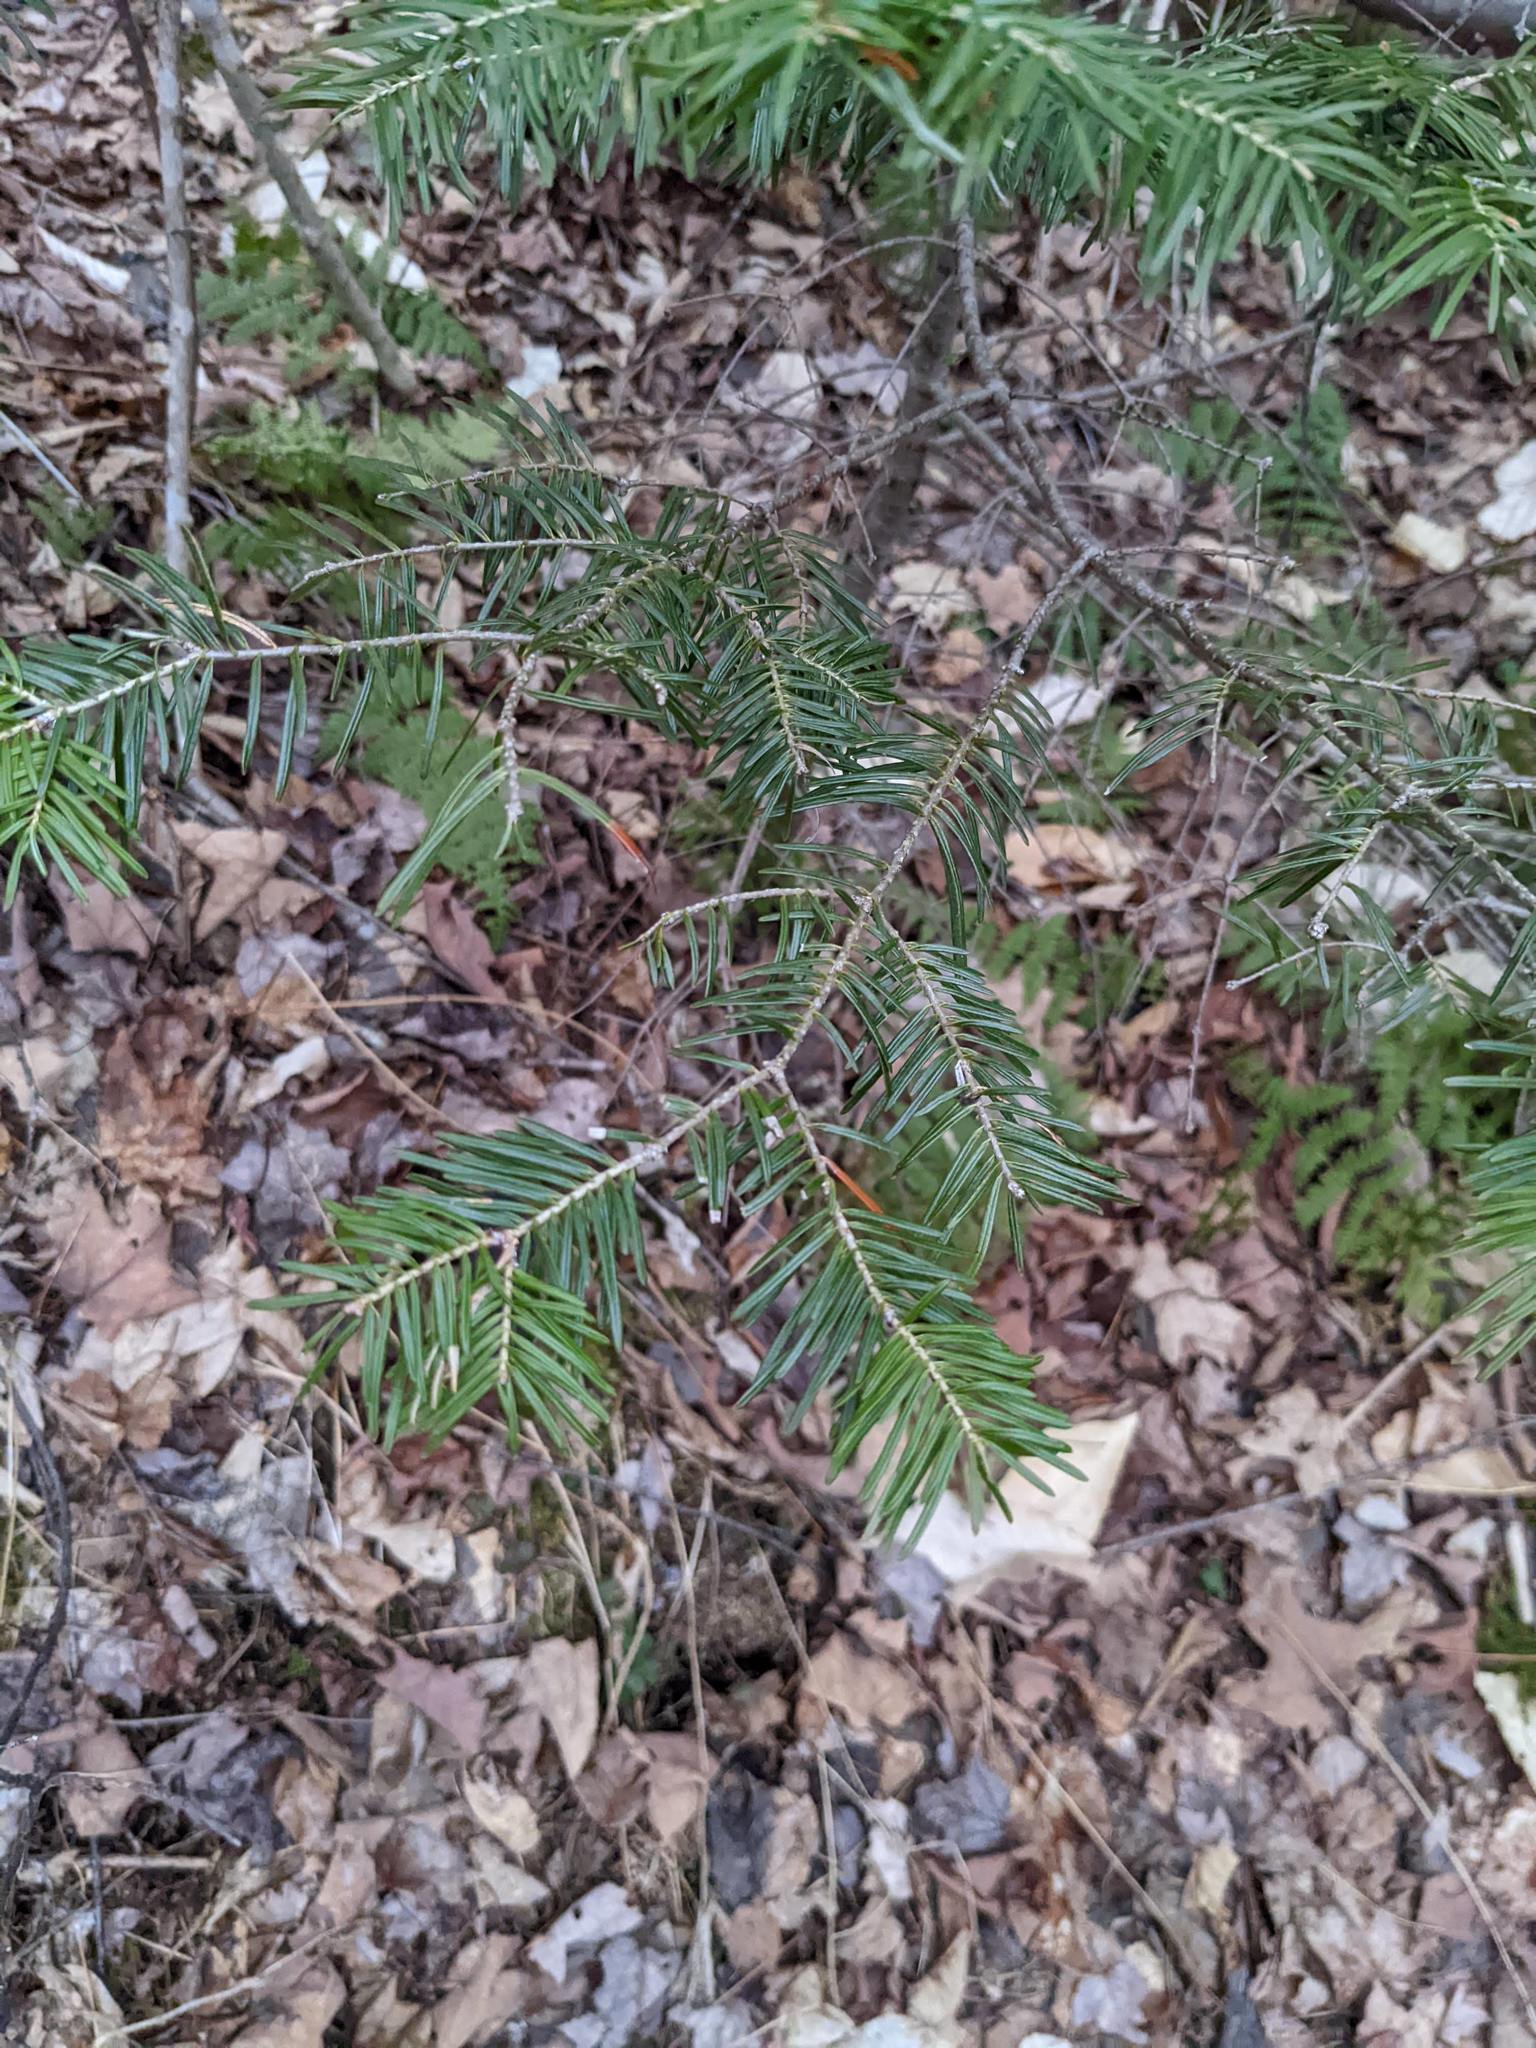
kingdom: Plantae
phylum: Tracheophyta
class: Pinopsida
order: Pinales
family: Pinaceae
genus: Abies
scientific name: Abies balsamea
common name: Balsam fir
